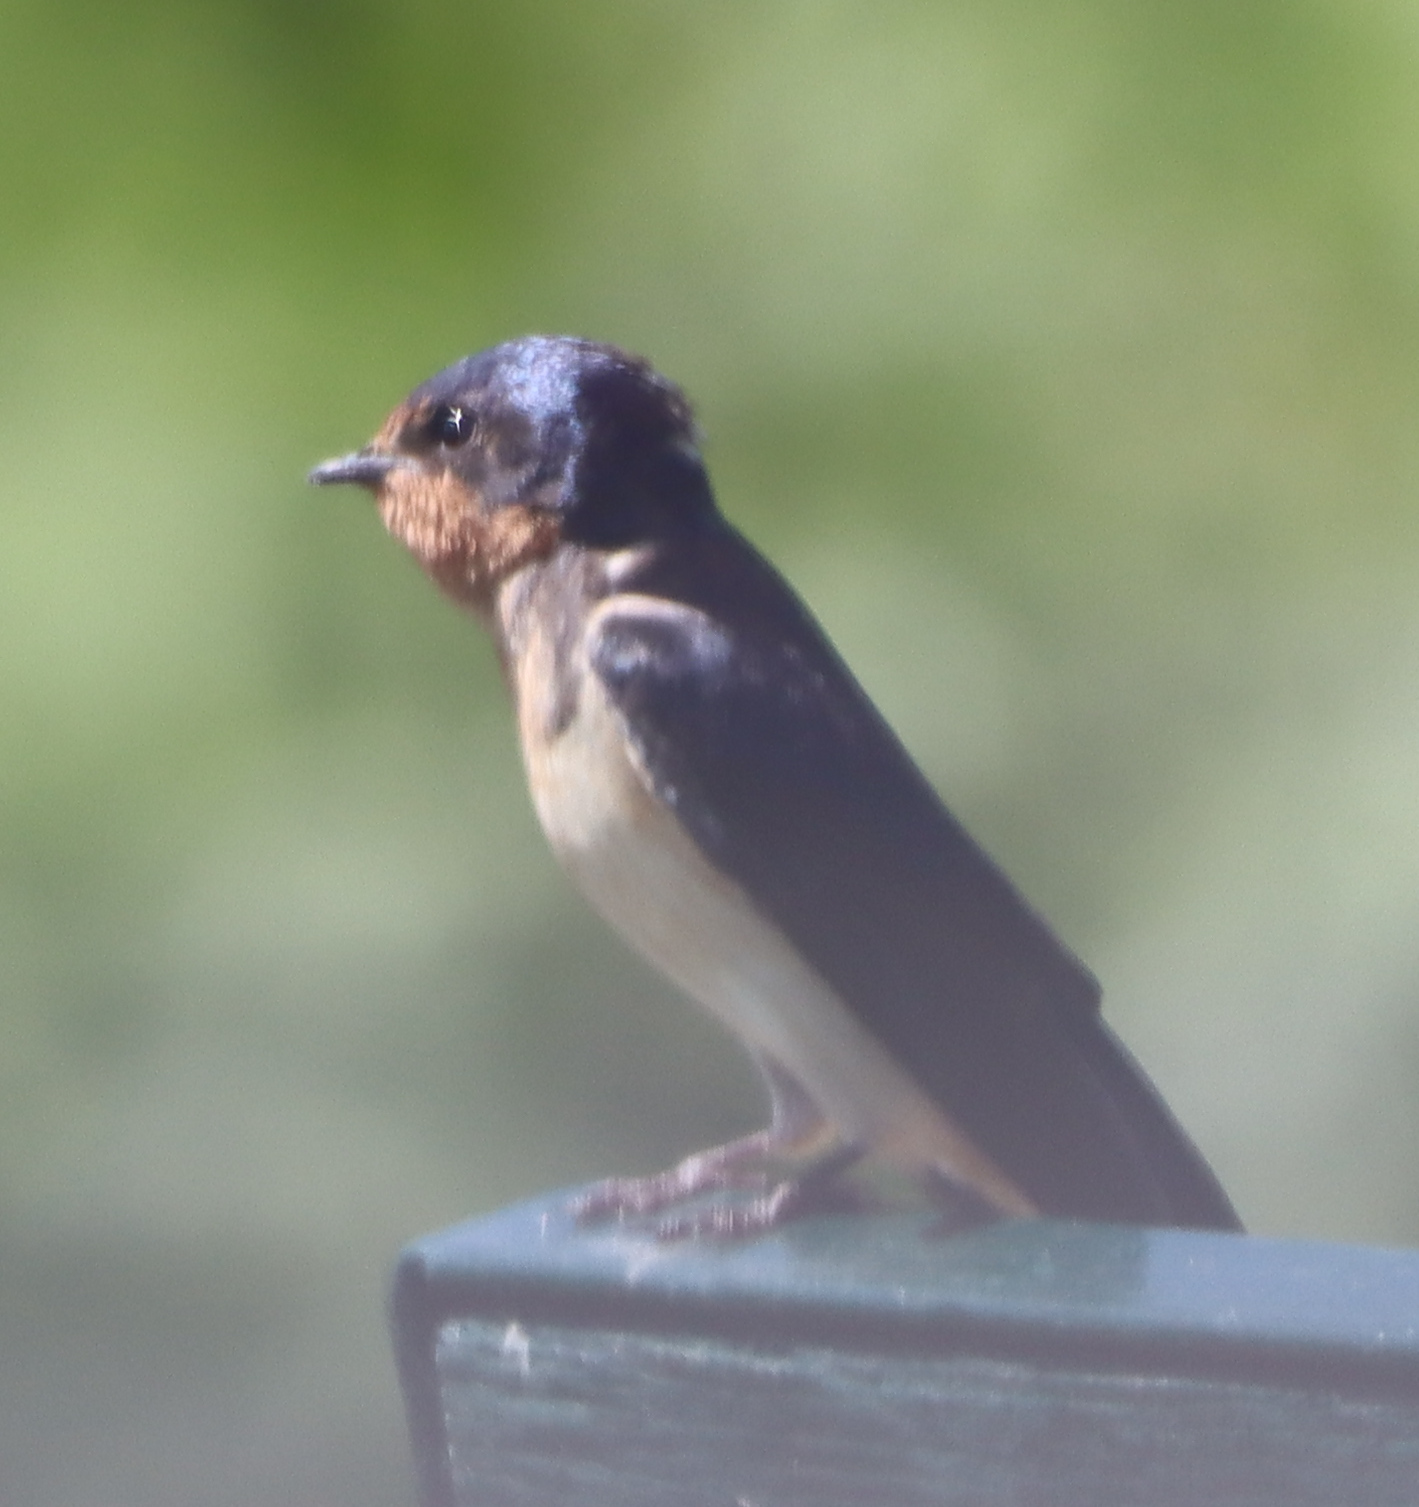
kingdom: Animalia
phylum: Chordata
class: Aves
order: Passeriformes
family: Hirundinidae
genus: Hirundo
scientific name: Hirundo rustica
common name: Barn swallow
